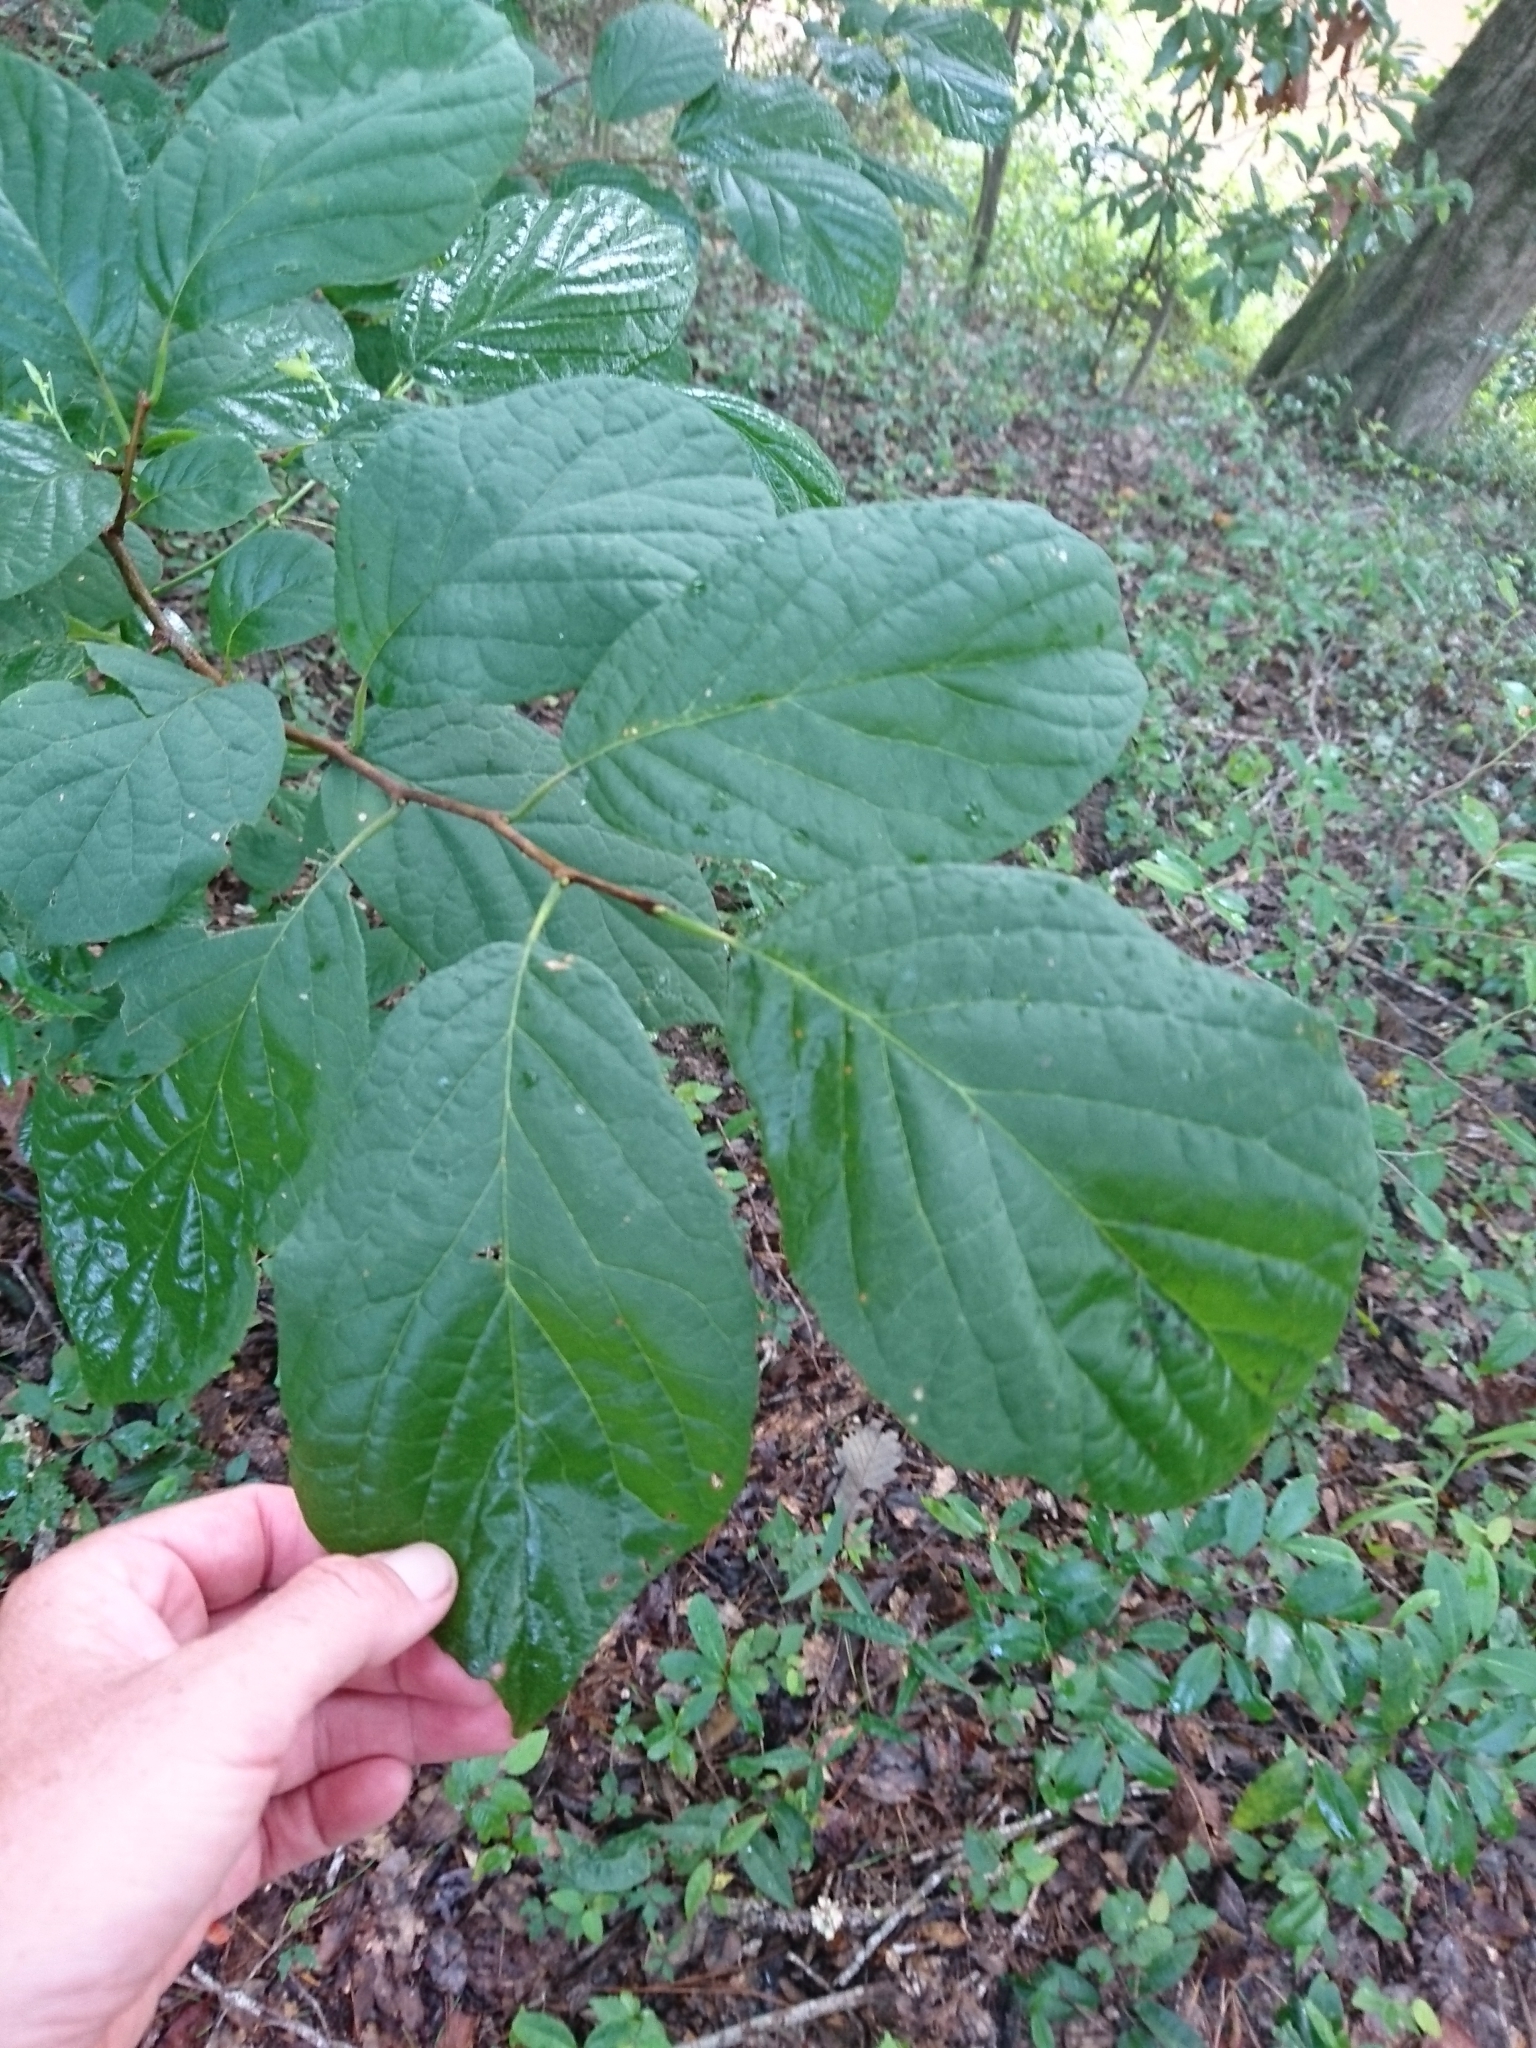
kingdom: Plantae
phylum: Tracheophyta
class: Magnoliopsida
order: Ericales
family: Styracaceae
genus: Halesia
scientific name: Halesia diptera
